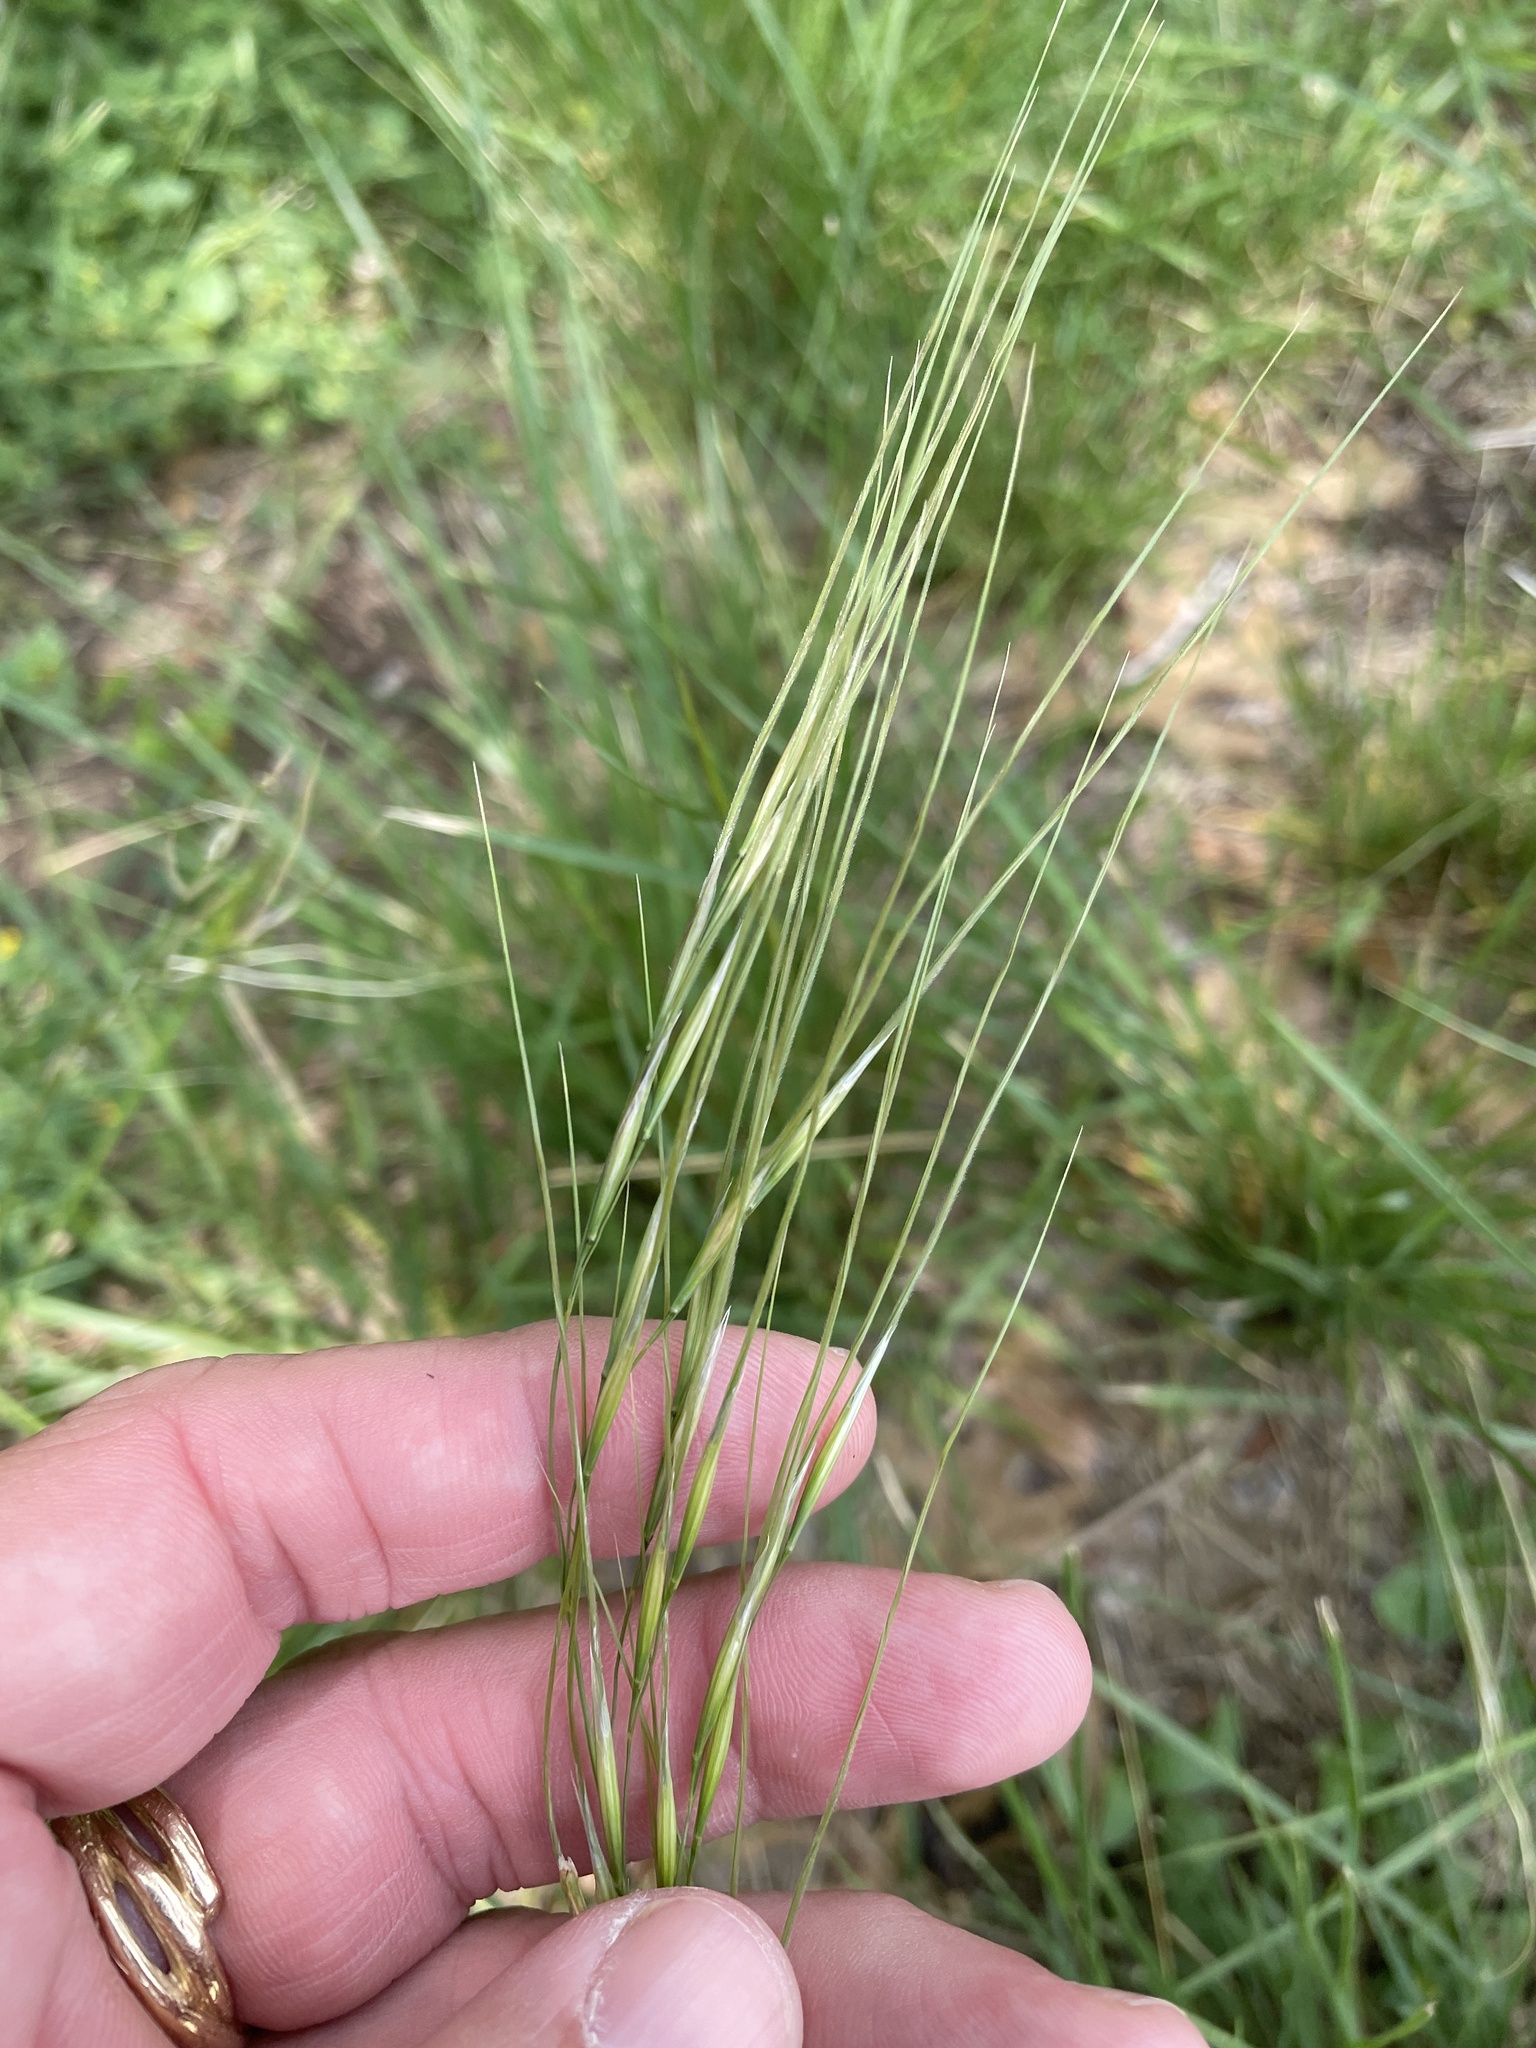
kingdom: Plantae
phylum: Tracheophyta
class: Liliopsida
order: Poales
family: Poaceae
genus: Nassella
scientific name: Nassella leucotricha
